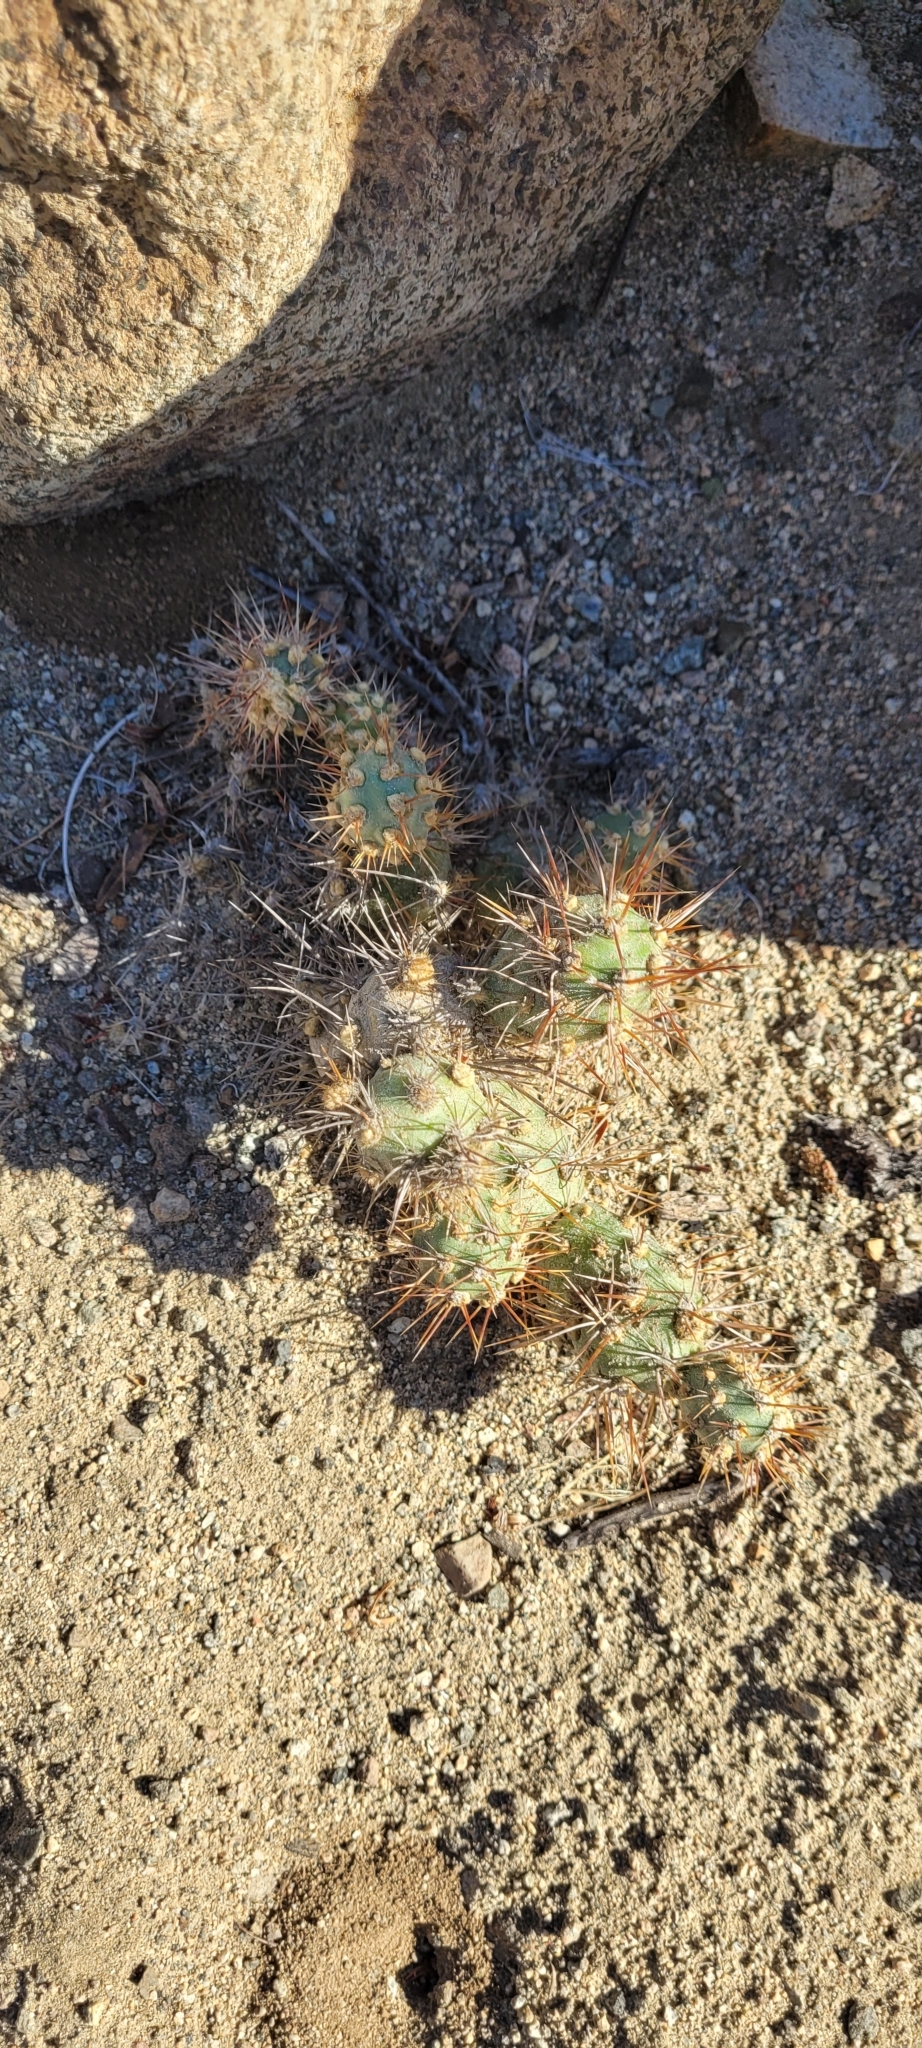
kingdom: Plantae
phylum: Tracheophyta
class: Magnoliopsida
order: Caryophyllales
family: Cactaceae
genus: Cumulopuntia
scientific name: Cumulopuntia leucophaea
